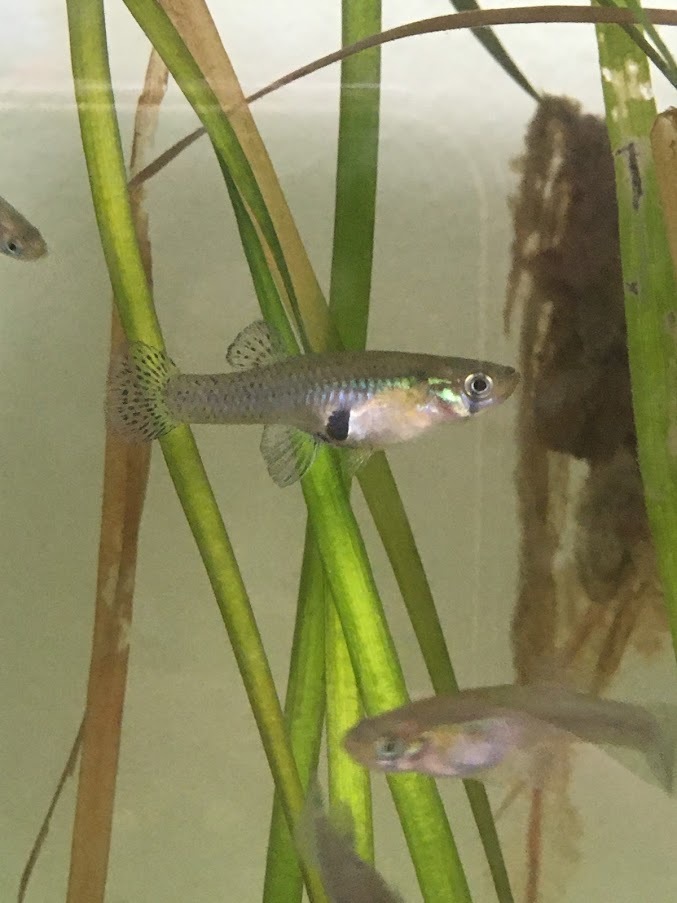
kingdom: Animalia
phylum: Chordata
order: Cyprinodontiformes
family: Poeciliidae
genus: Gambusia
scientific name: Gambusia holbrooki
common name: Eastern mosquitofish
